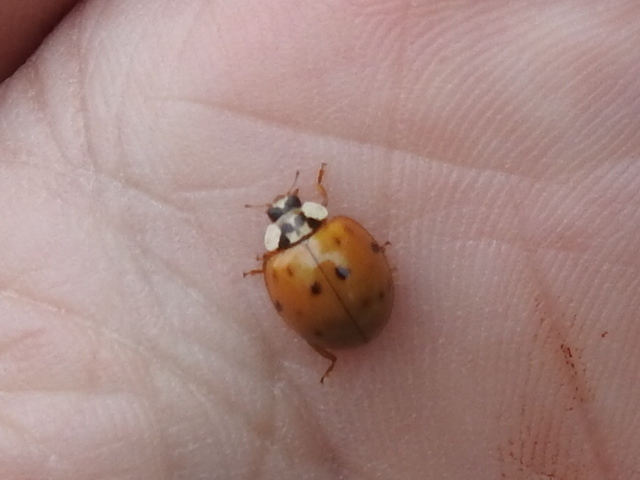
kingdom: Animalia
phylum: Arthropoda
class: Insecta
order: Coleoptera
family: Coccinellidae
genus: Harmonia
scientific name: Harmonia axyridis
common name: Harlequin ladybird
